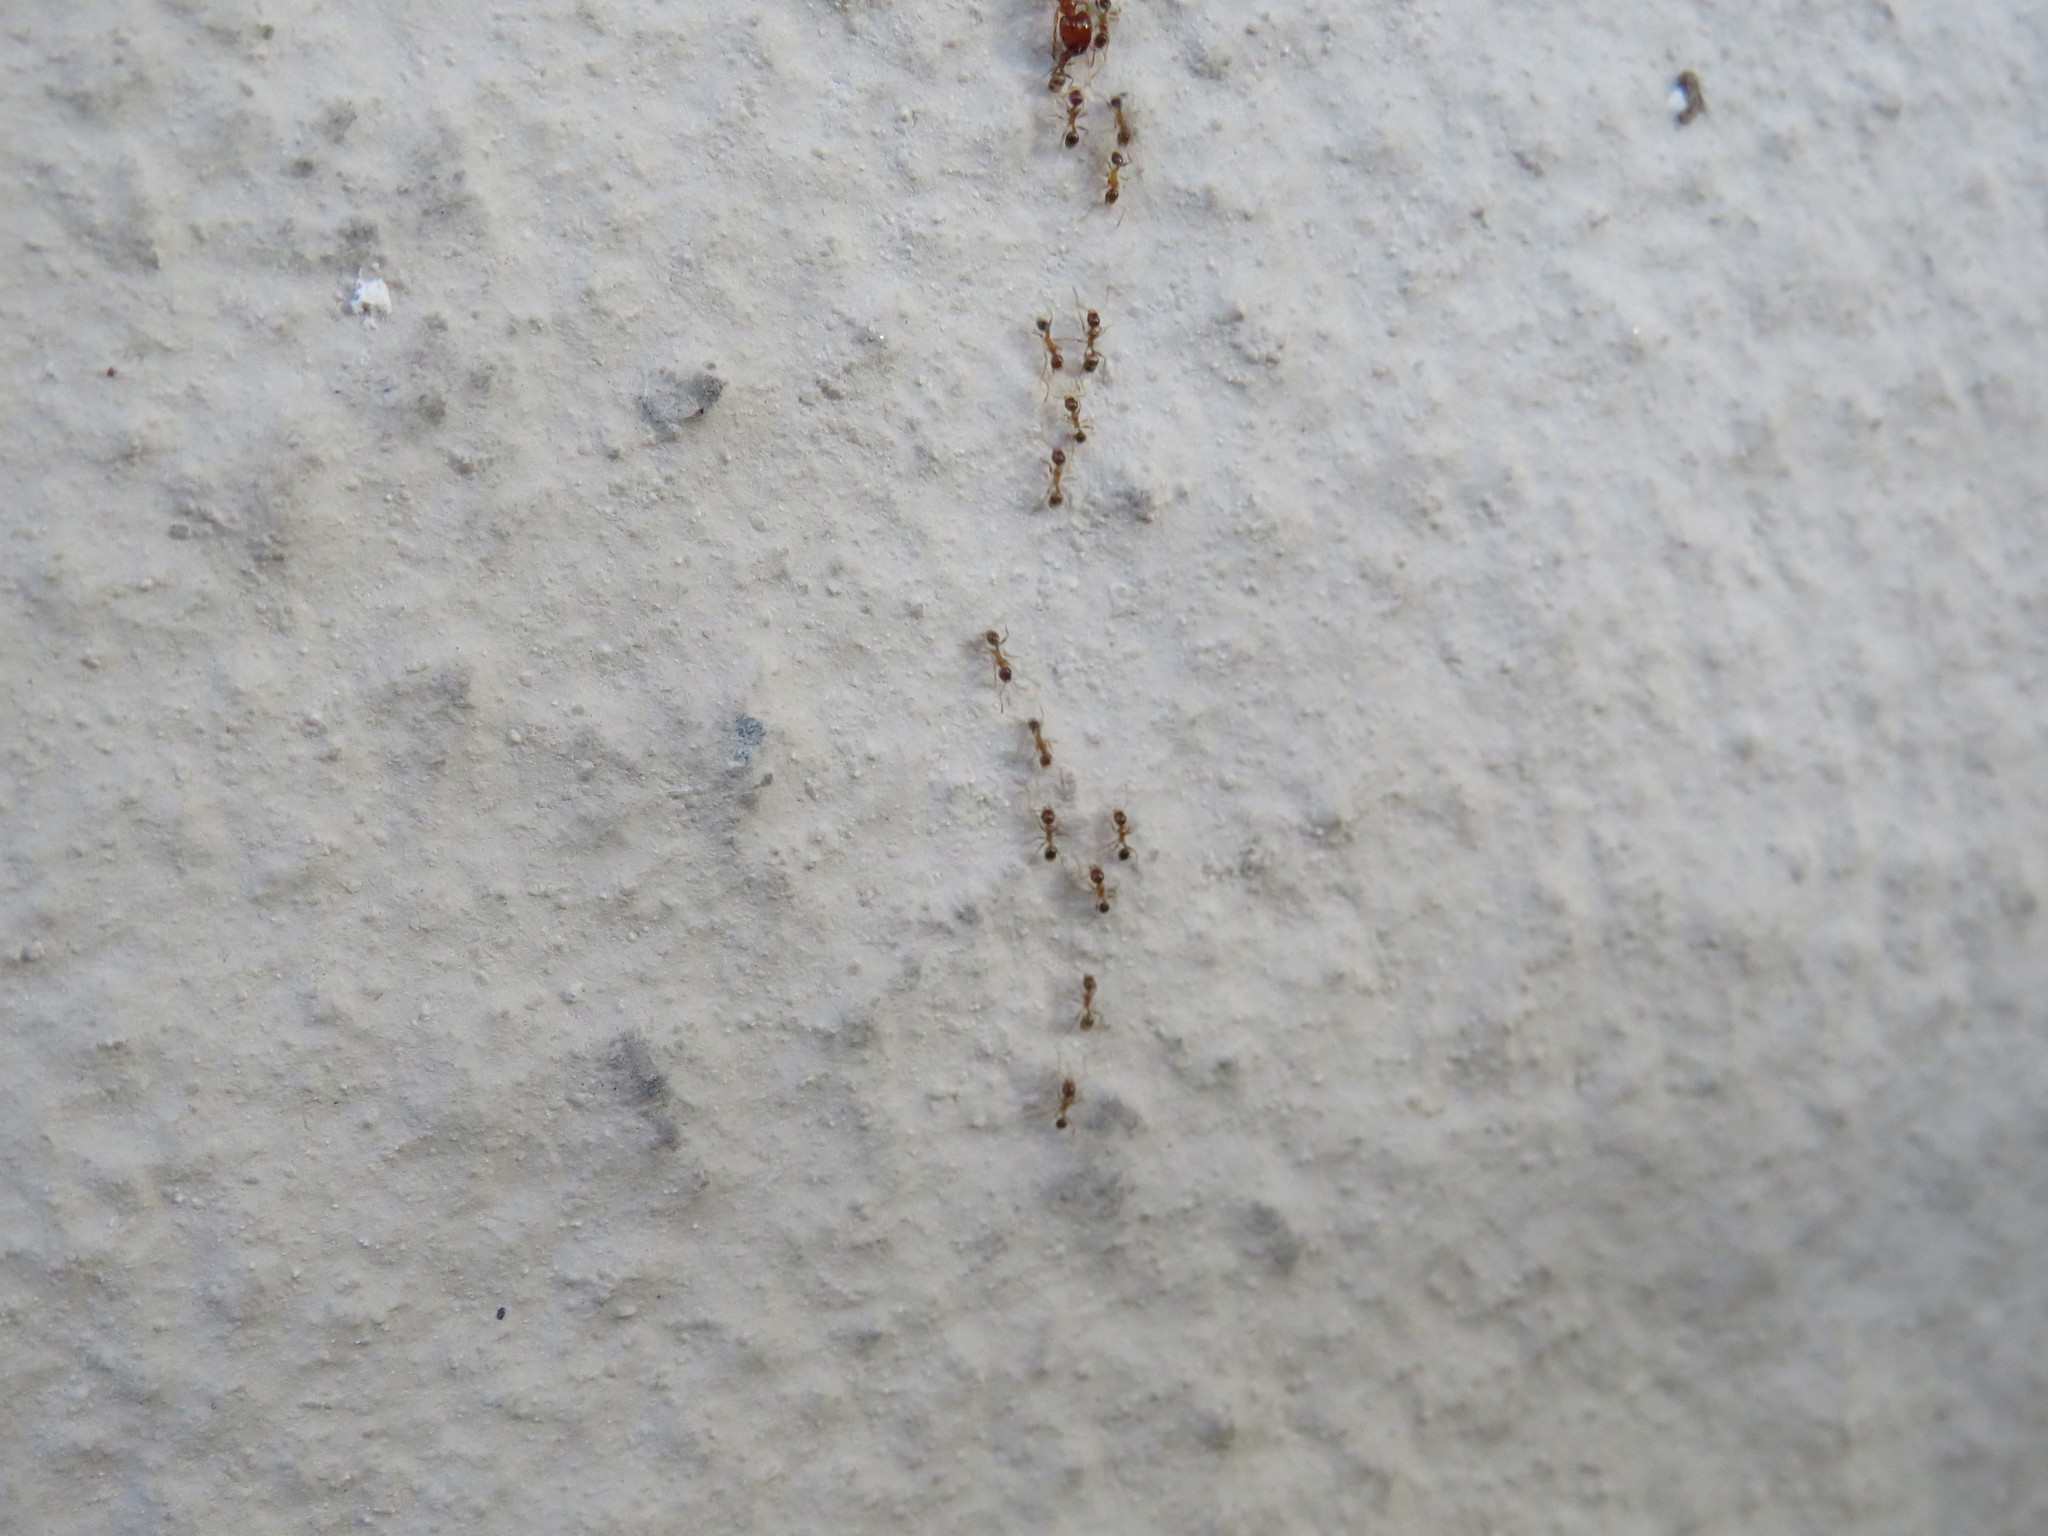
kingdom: Animalia
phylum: Arthropoda
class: Insecta
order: Hymenoptera
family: Formicidae
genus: Pheidole
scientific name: Pheidole megacephala
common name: Bigheaded ant
